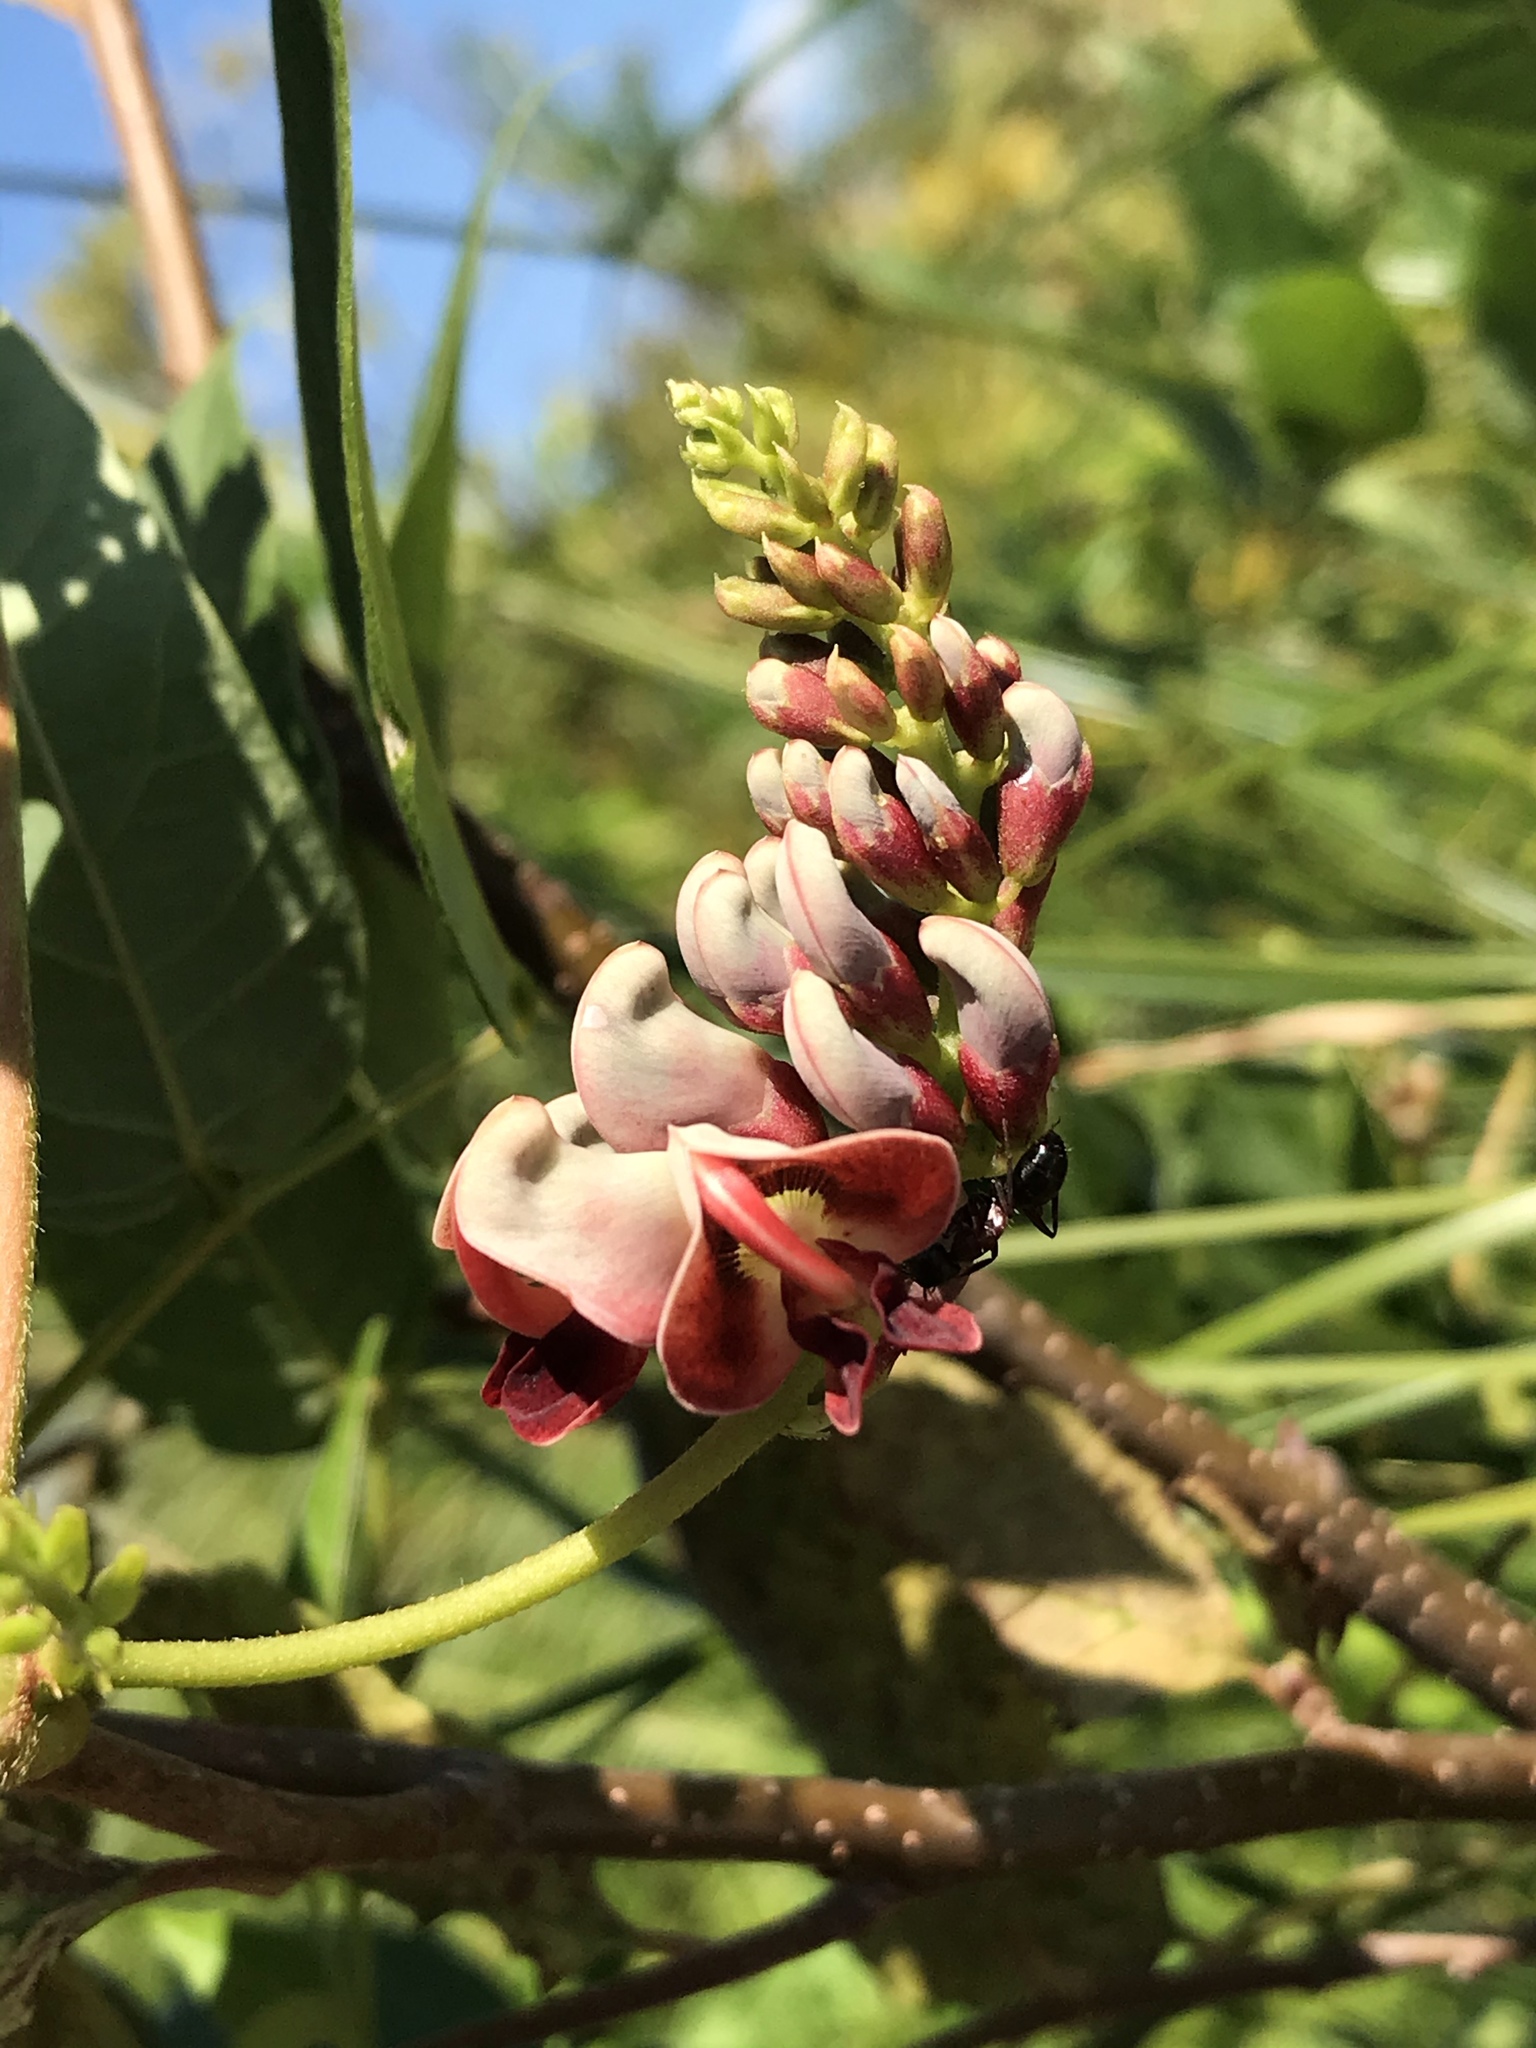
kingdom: Plantae
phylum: Tracheophyta
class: Magnoliopsida
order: Fabales
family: Fabaceae
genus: Apios
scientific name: Apios americana
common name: American potato-bean
